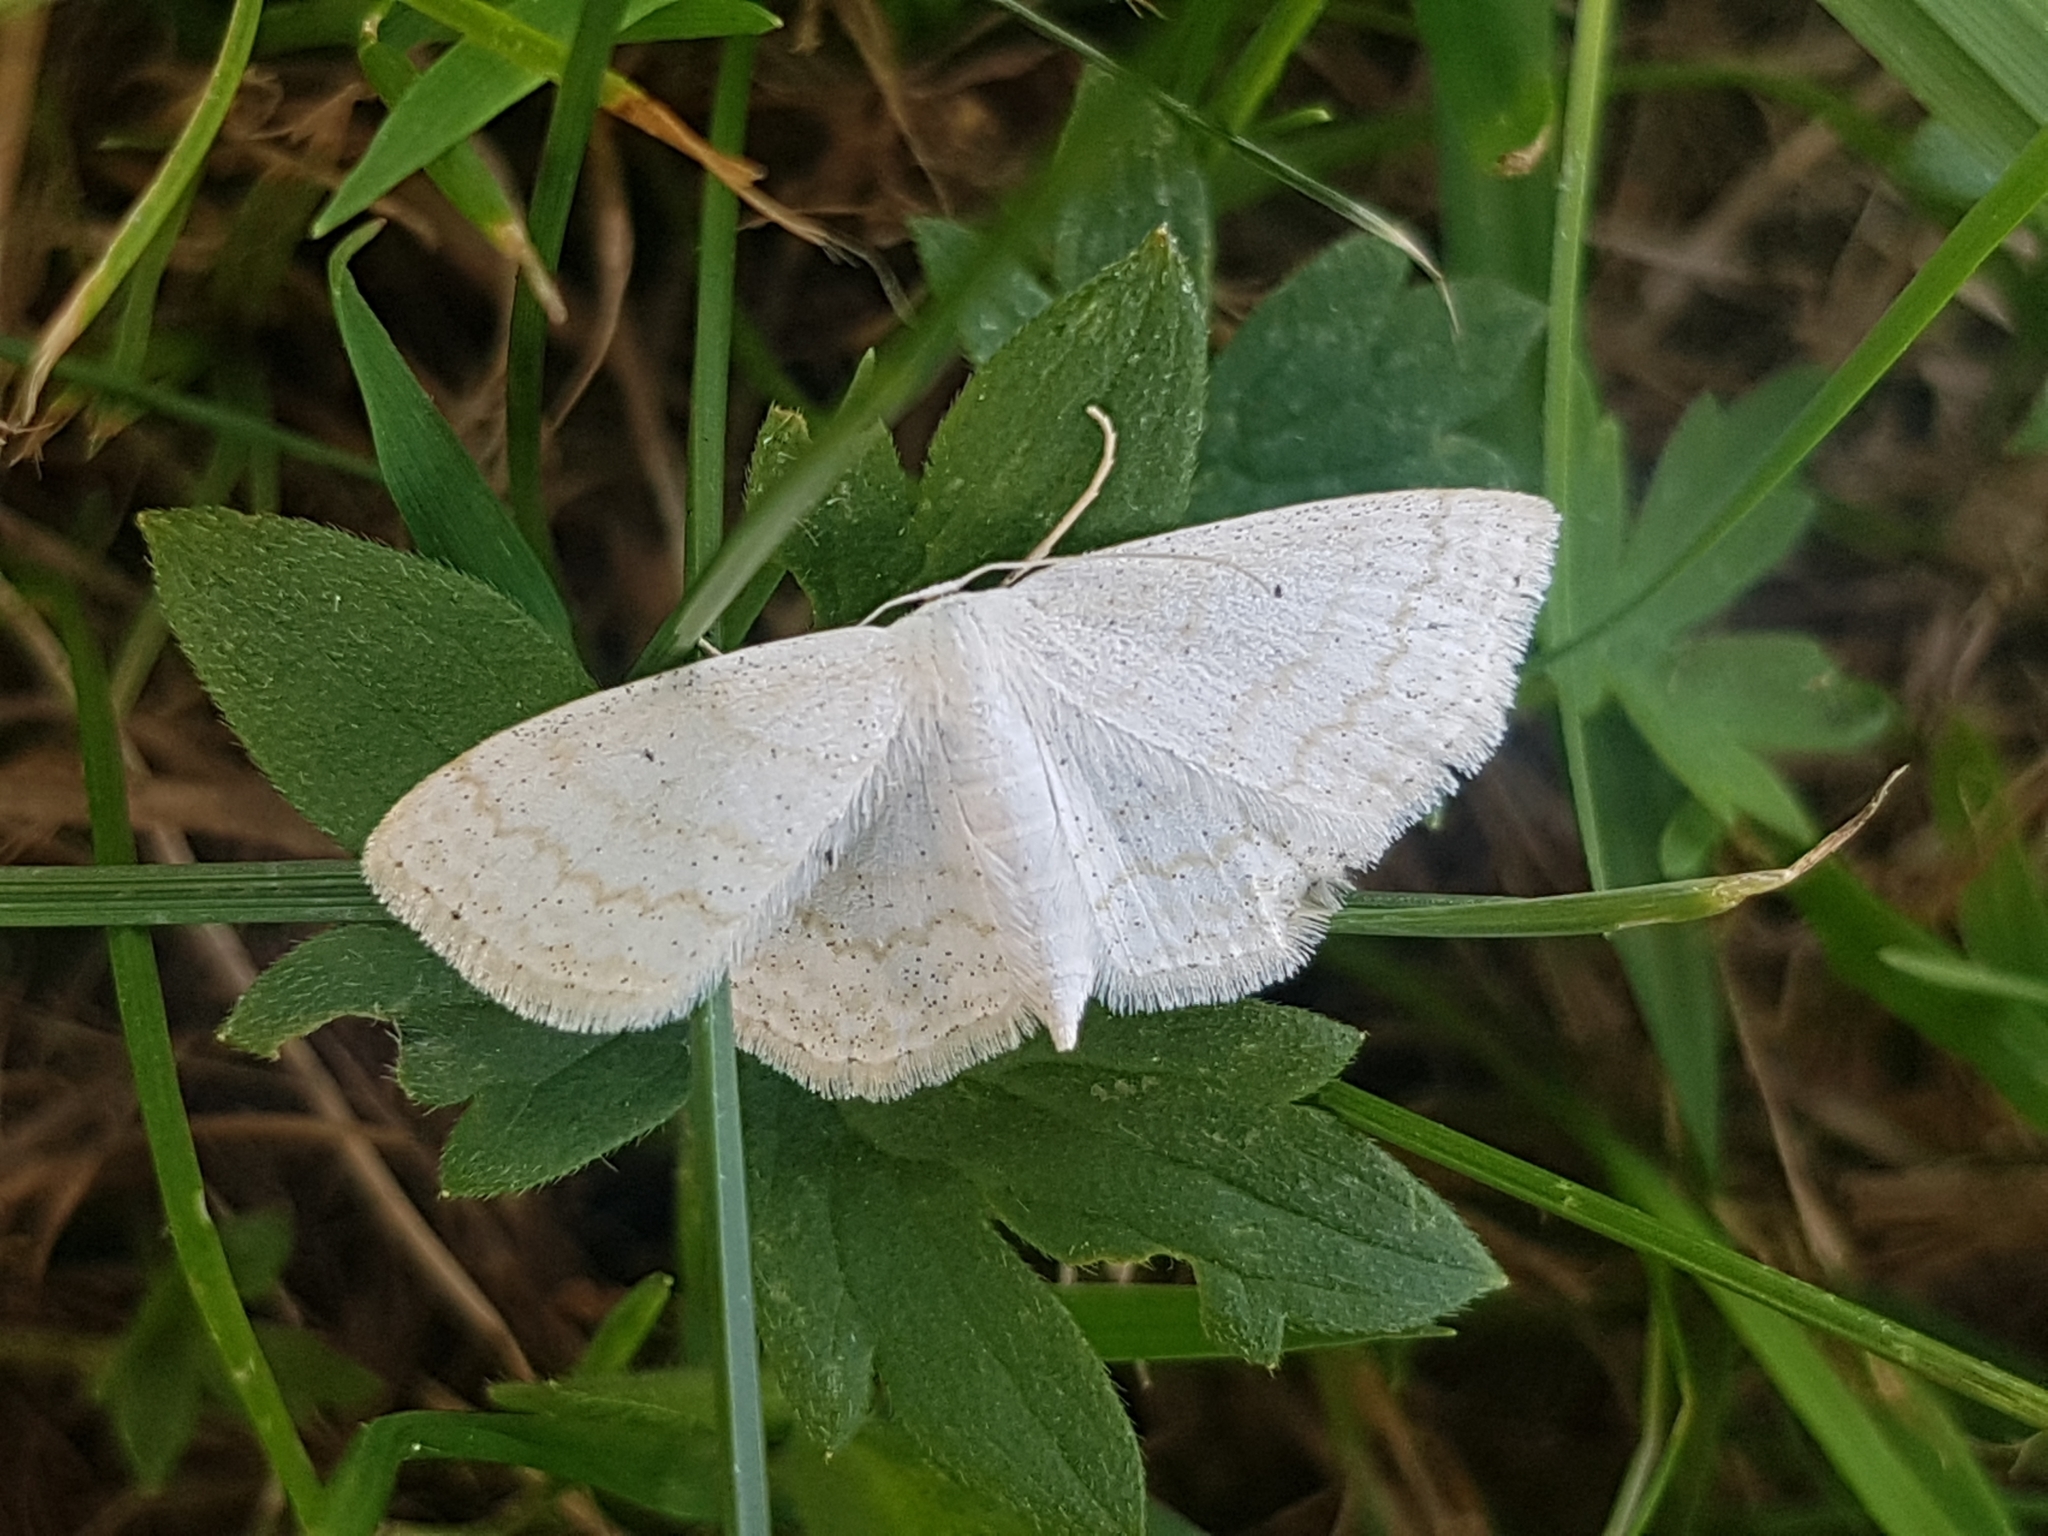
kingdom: Animalia
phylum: Arthropoda
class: Insecta
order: Lepidoptera
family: Geometridae
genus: Scopula
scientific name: Scopula immutata
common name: Lesser cream wave
